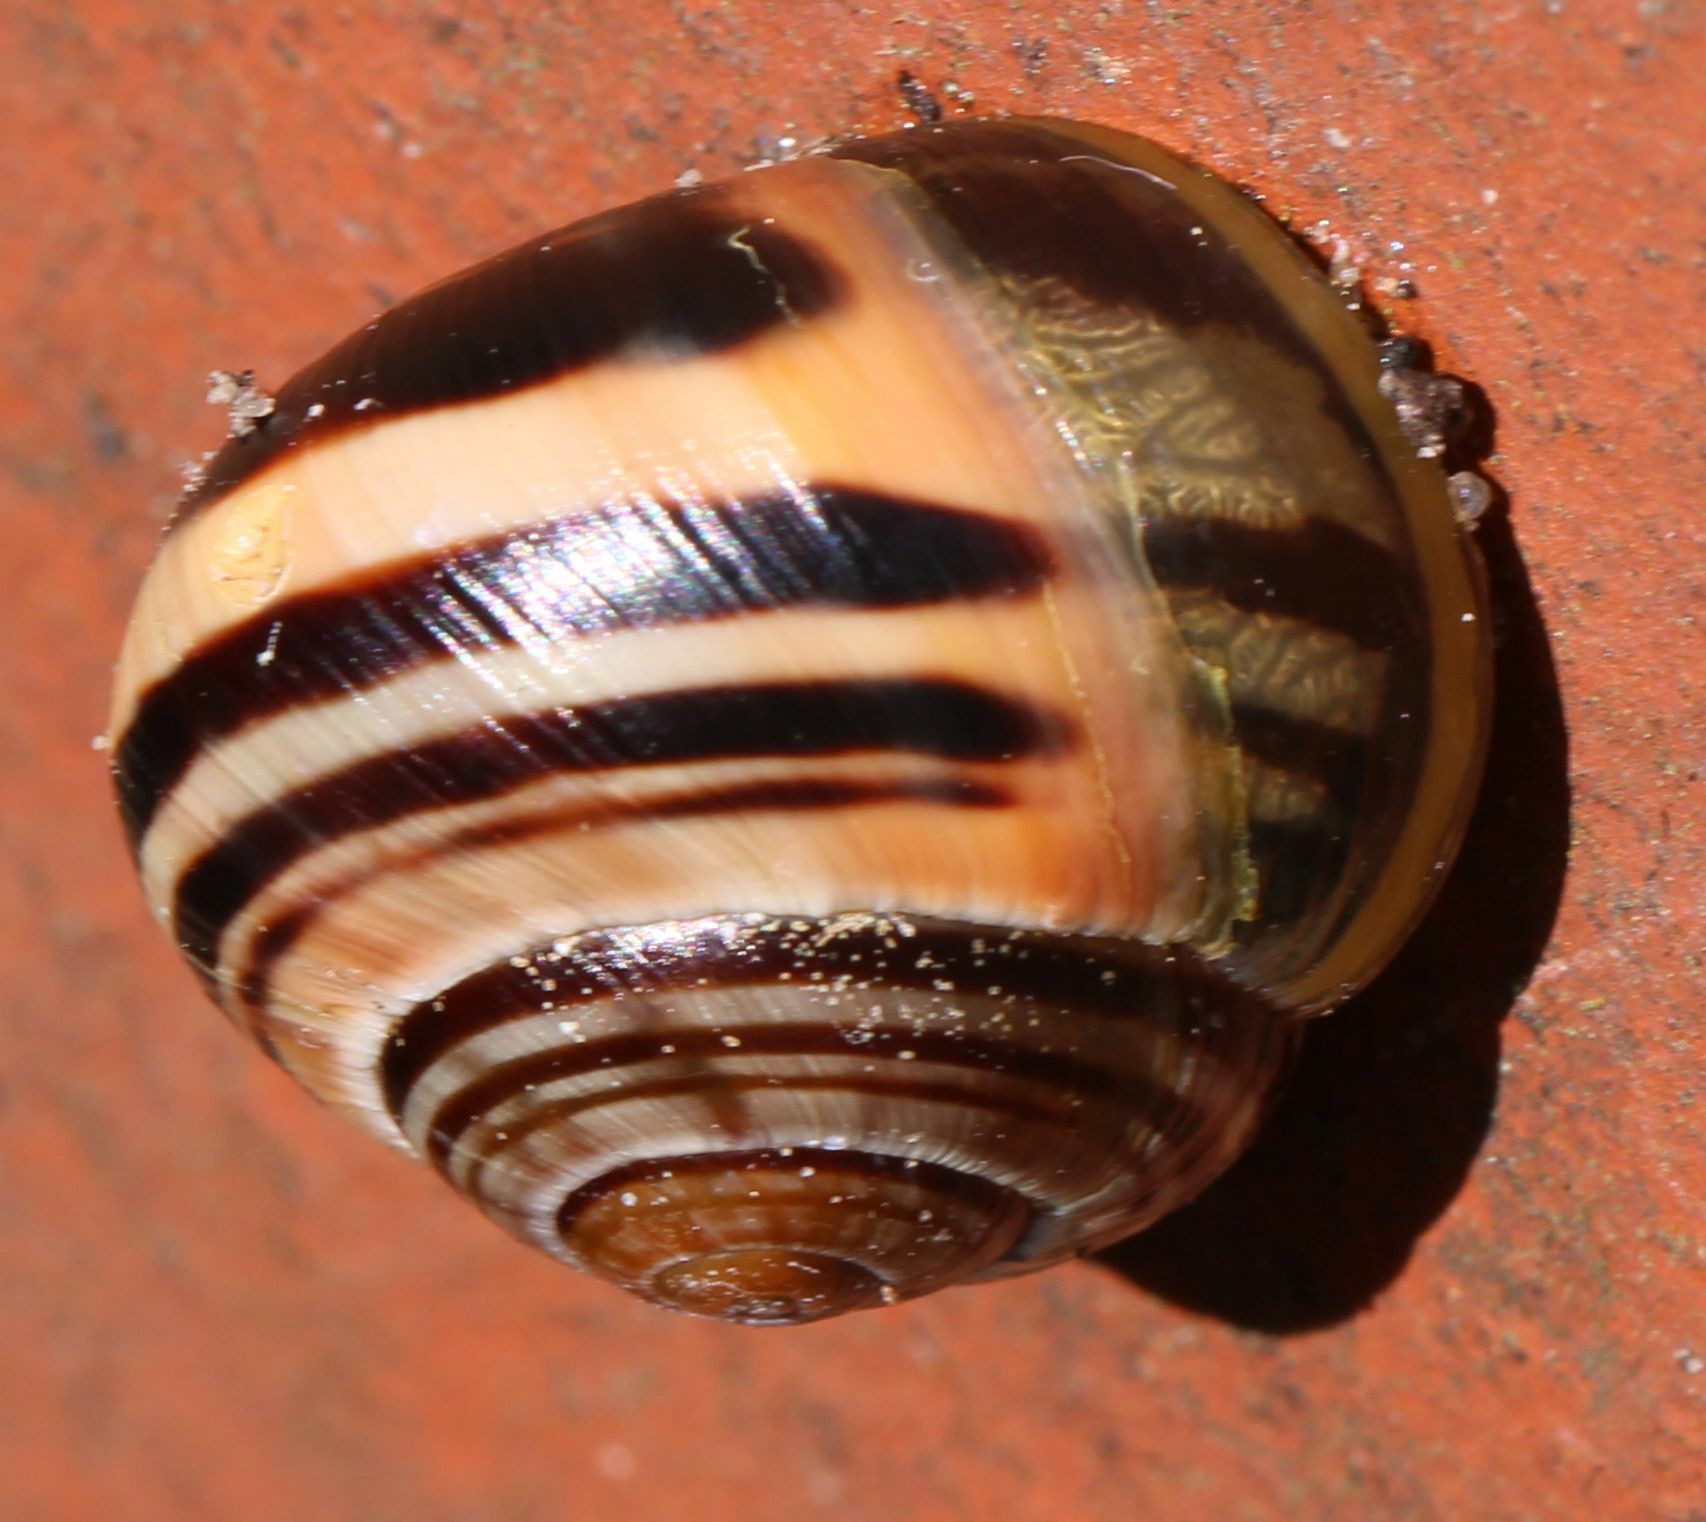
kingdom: Animalia
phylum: Mollusca
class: Gastropoda
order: Stylommatophora
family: Helicidae
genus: Cepaea
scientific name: Cepaea nemoralis
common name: Grovesnail
